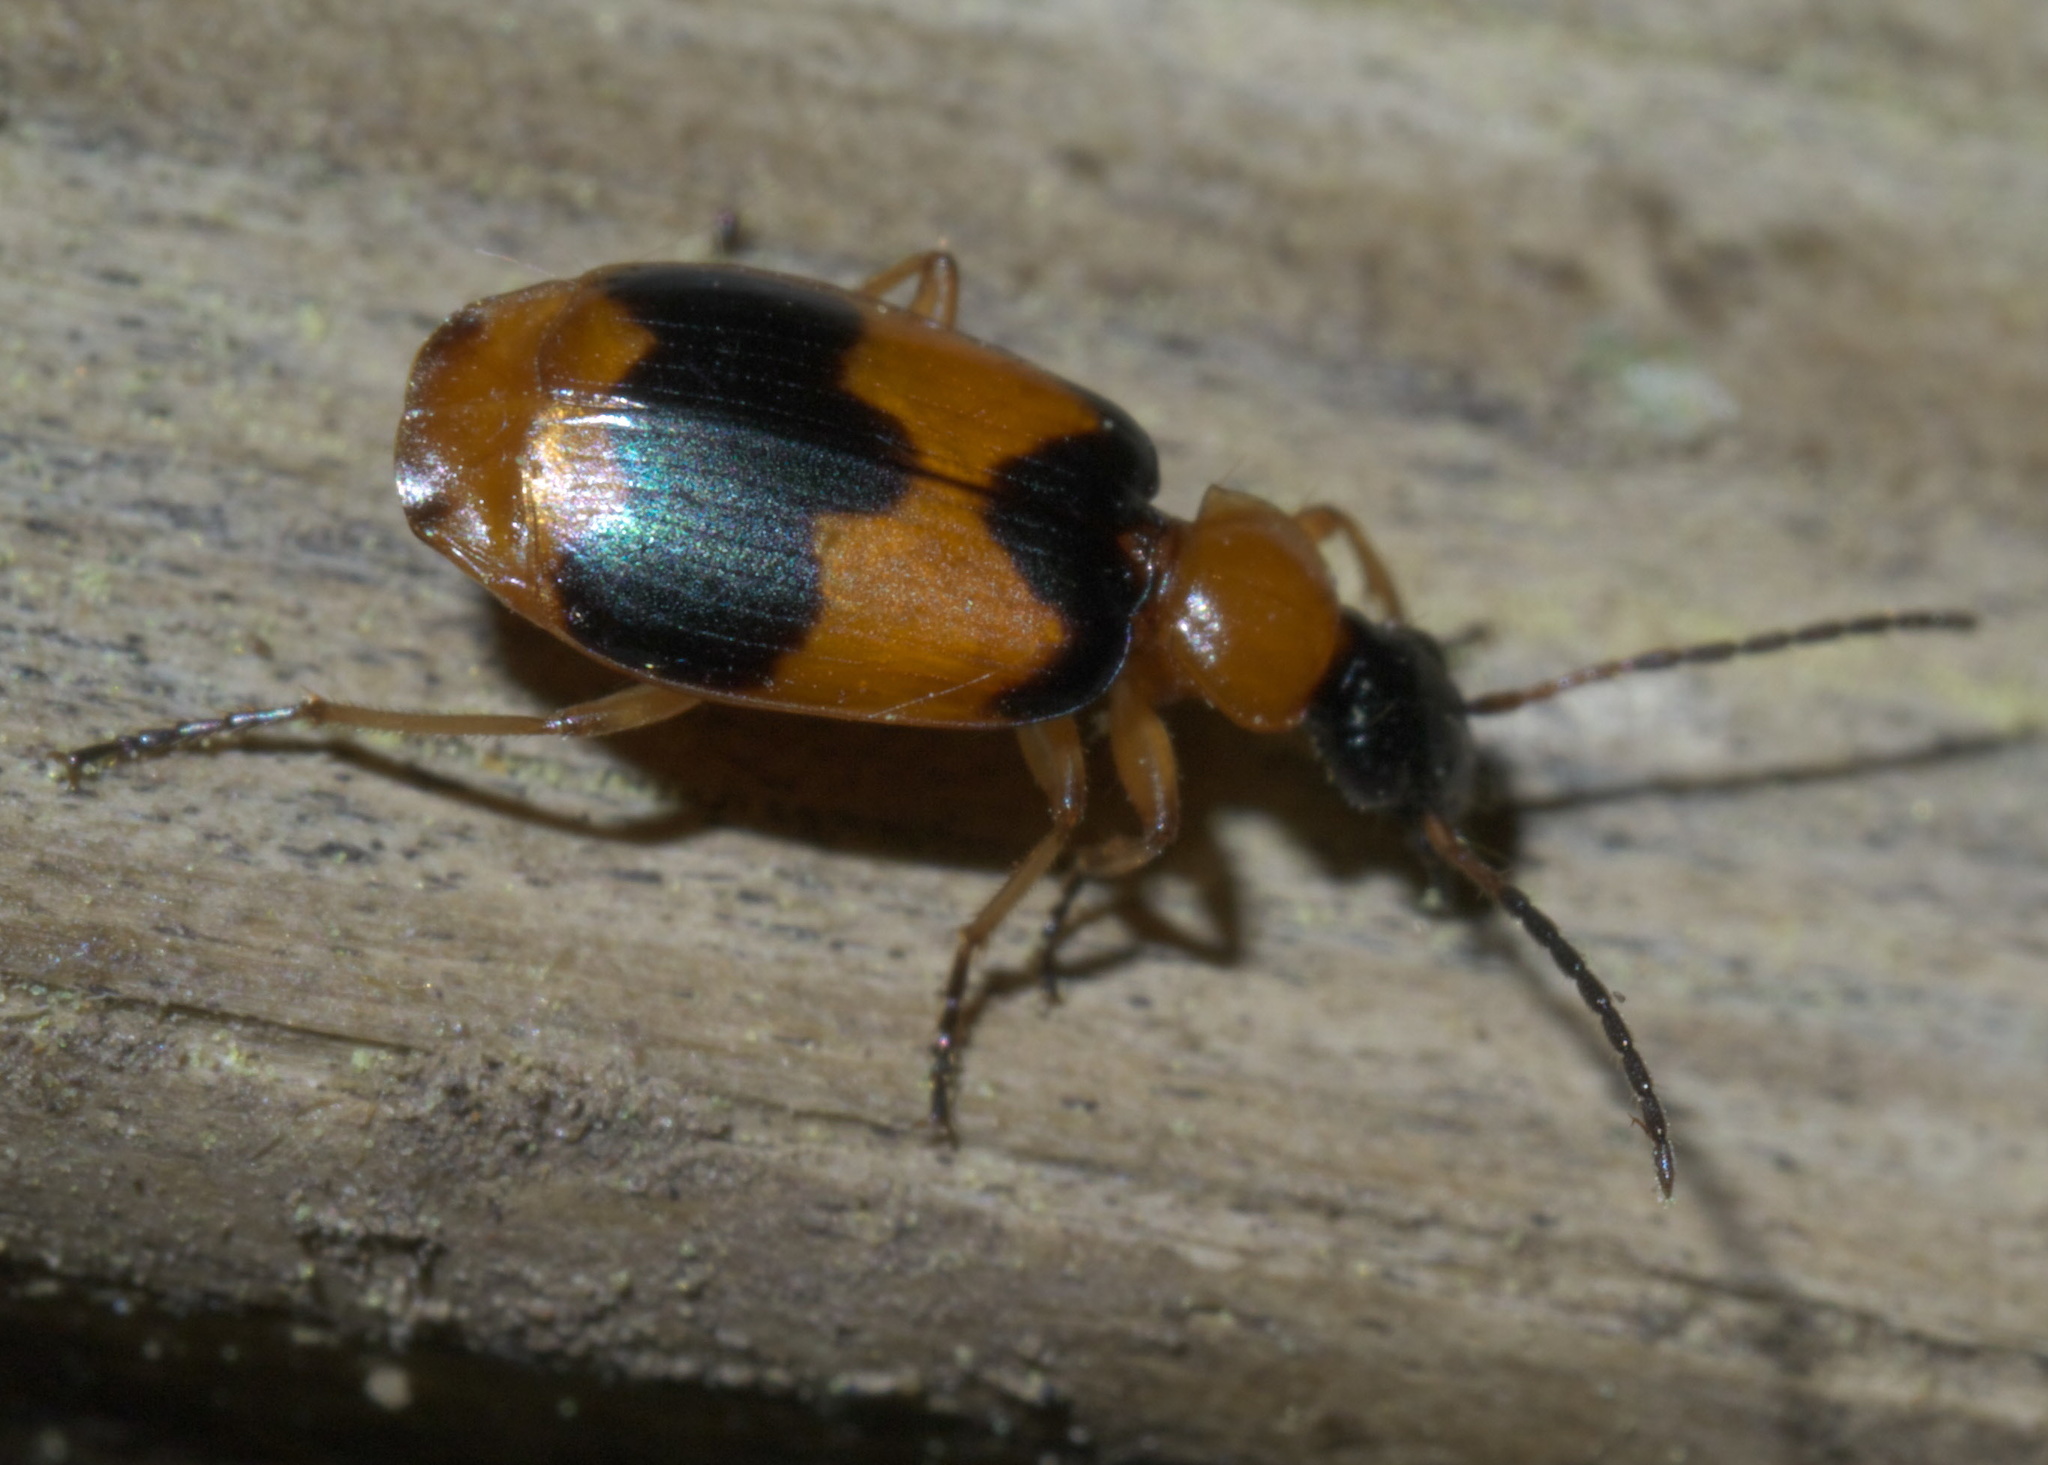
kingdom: Animalia
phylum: Arthropoda
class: Insecta
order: Coleoptera
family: Carabidae
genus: Lebia
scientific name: Lebia pulchella
